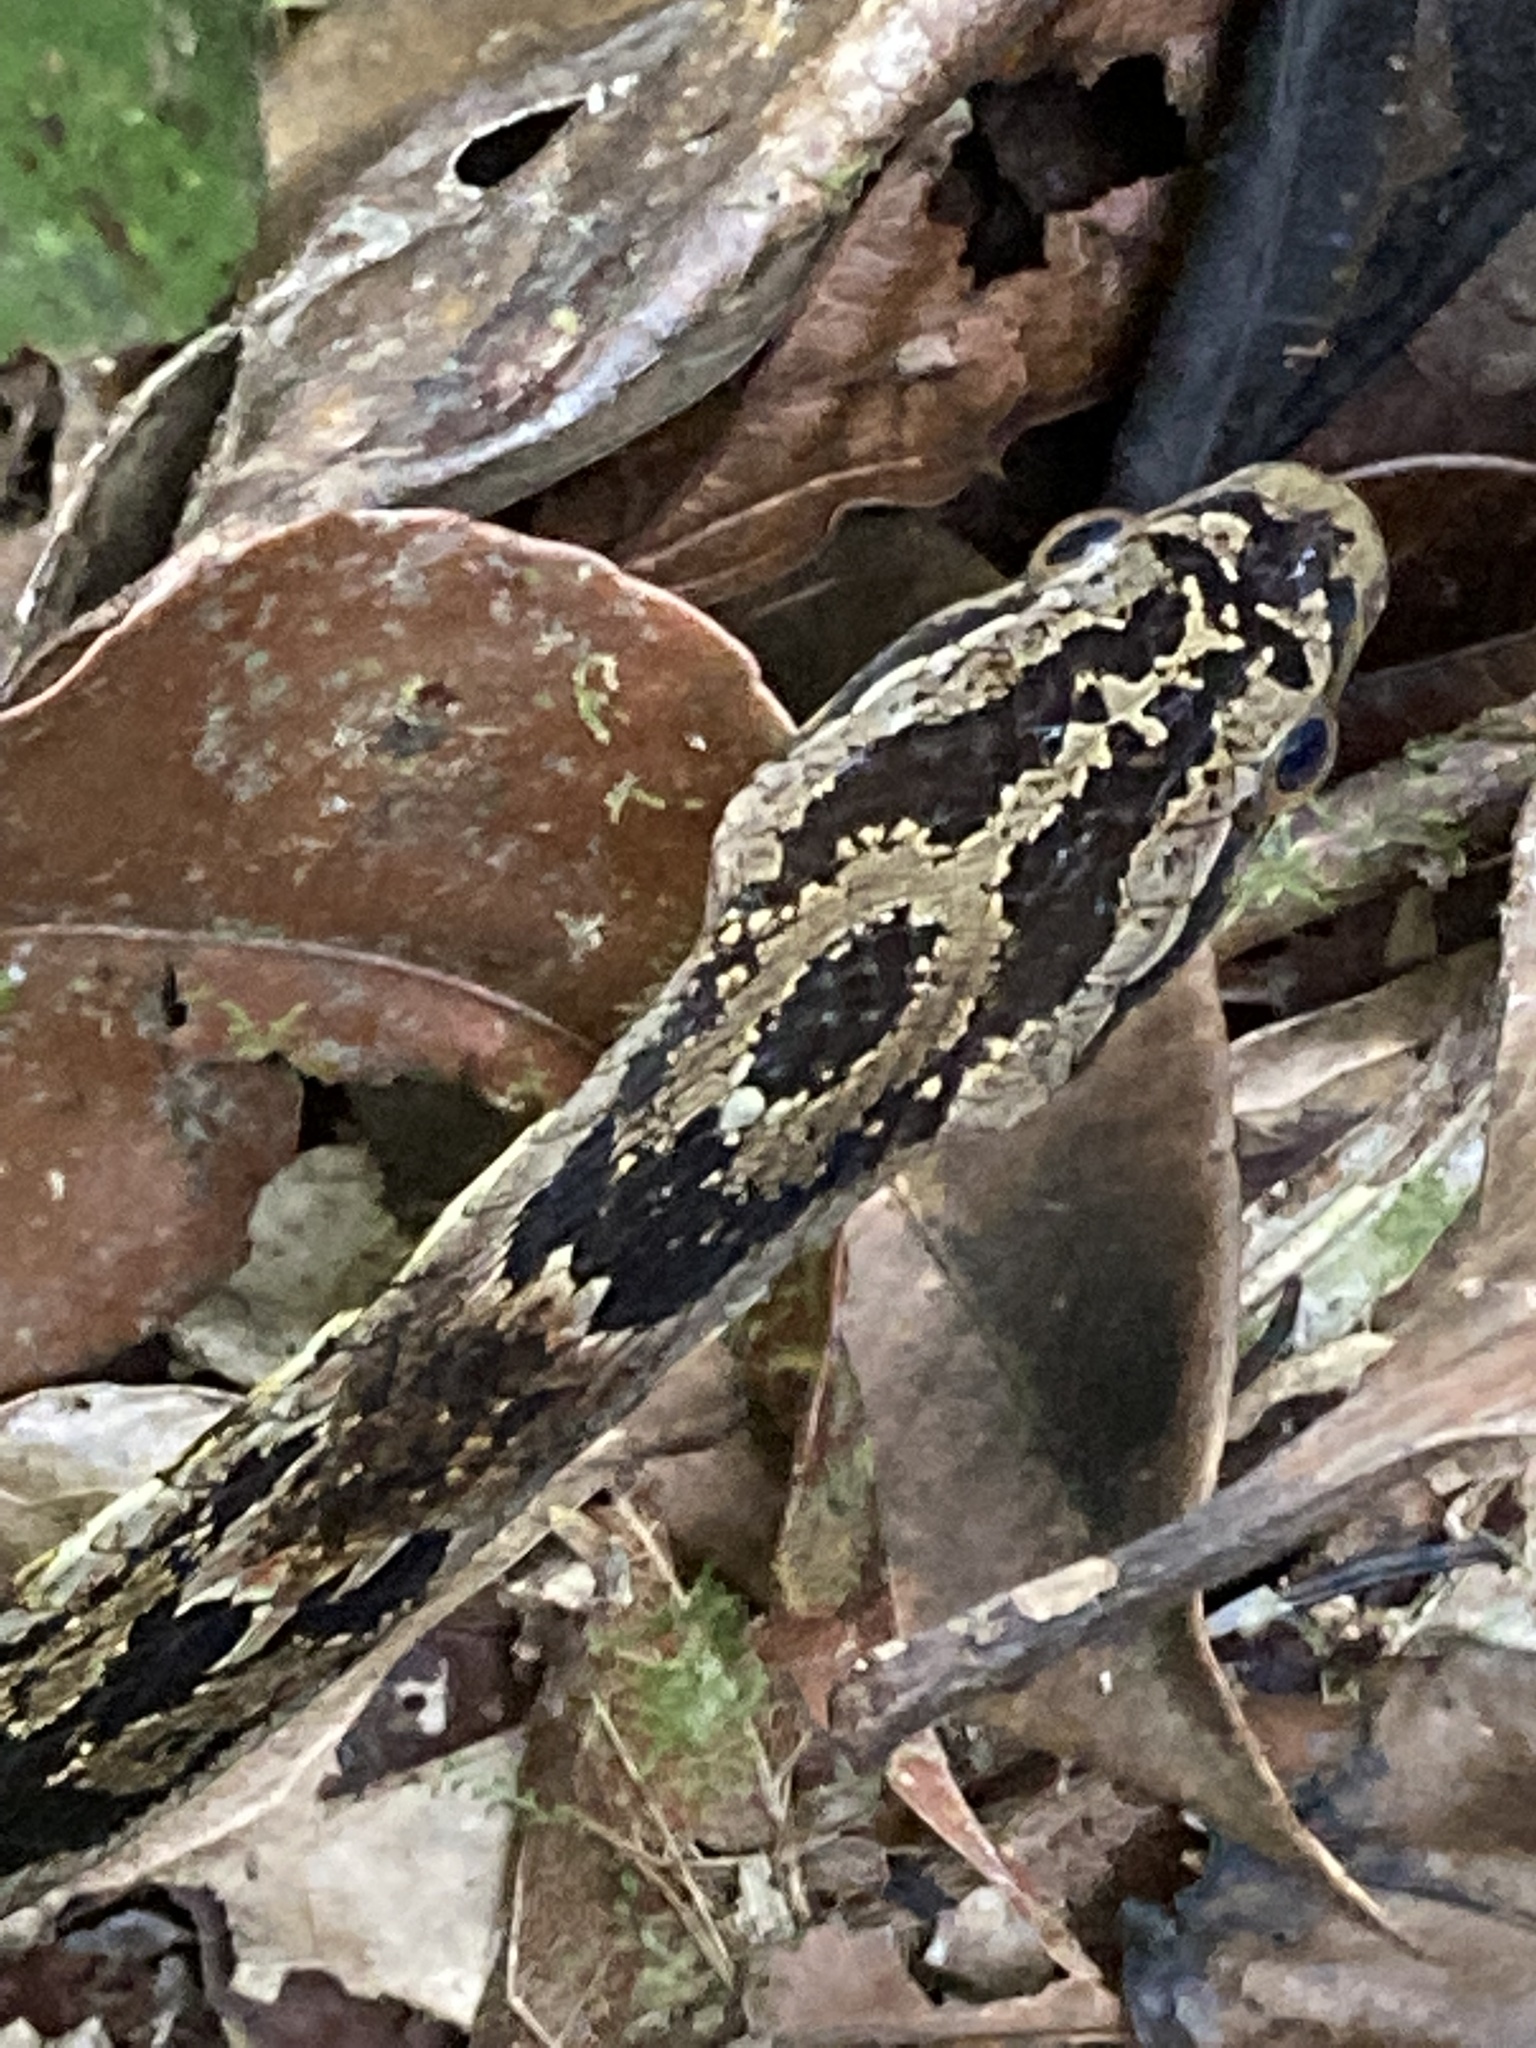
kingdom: Animalia
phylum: Chordata
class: Squamata
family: Colubridae
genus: Xenodon
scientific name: Xenodon rabdocephalus
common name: False fer-de-lance
